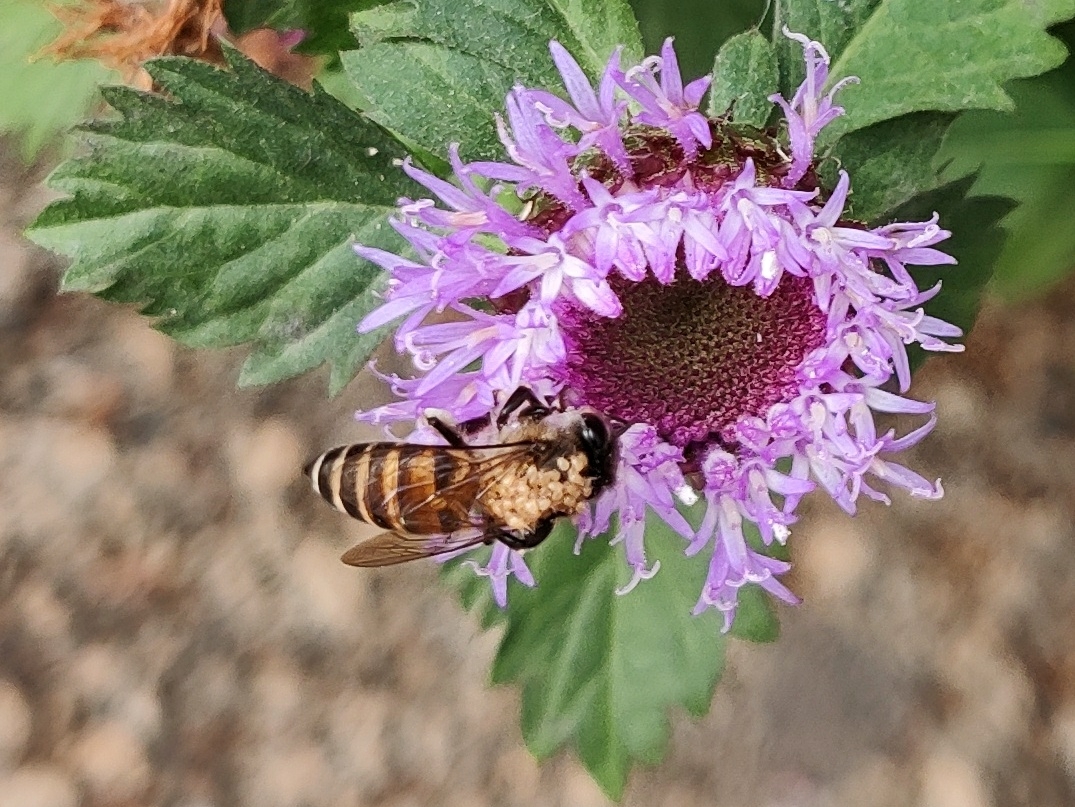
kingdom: Animalia
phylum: Arthropoda
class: Insecta
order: Hymenoptera
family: Apidae
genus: Apis
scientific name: Apis cerana
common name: Honey bee
